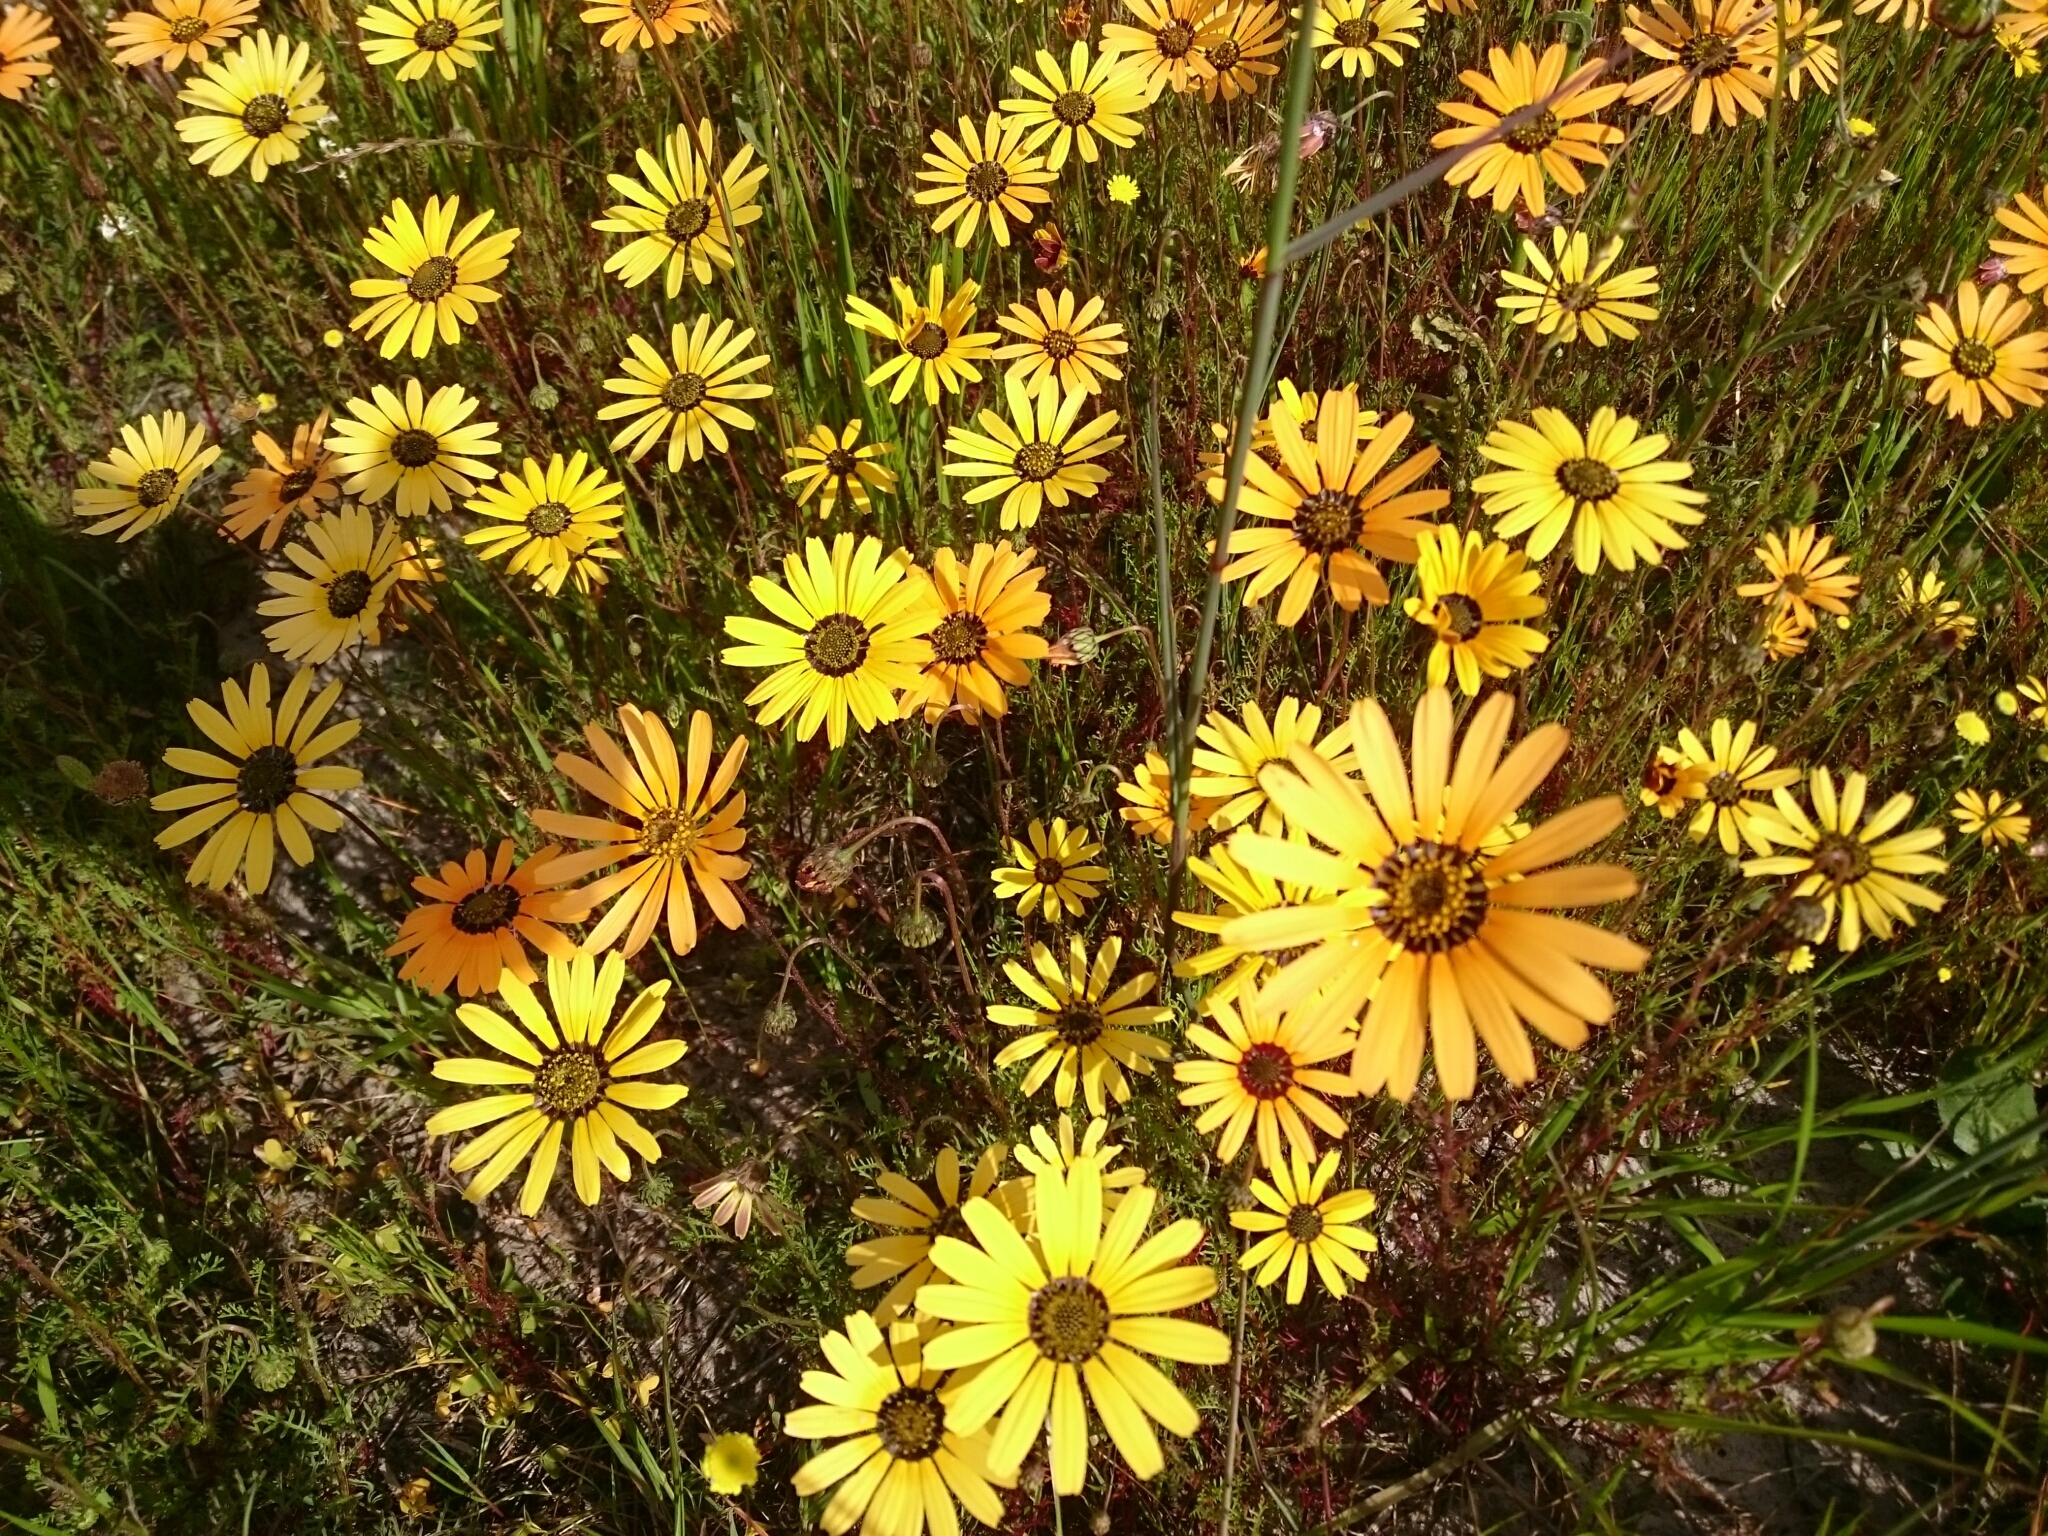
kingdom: Plantae
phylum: Tracheophyta
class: Magnoliopsida
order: Asterales
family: Asteraceae
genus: Ursinia
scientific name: Ursinia anthemoides
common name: Ursinia
